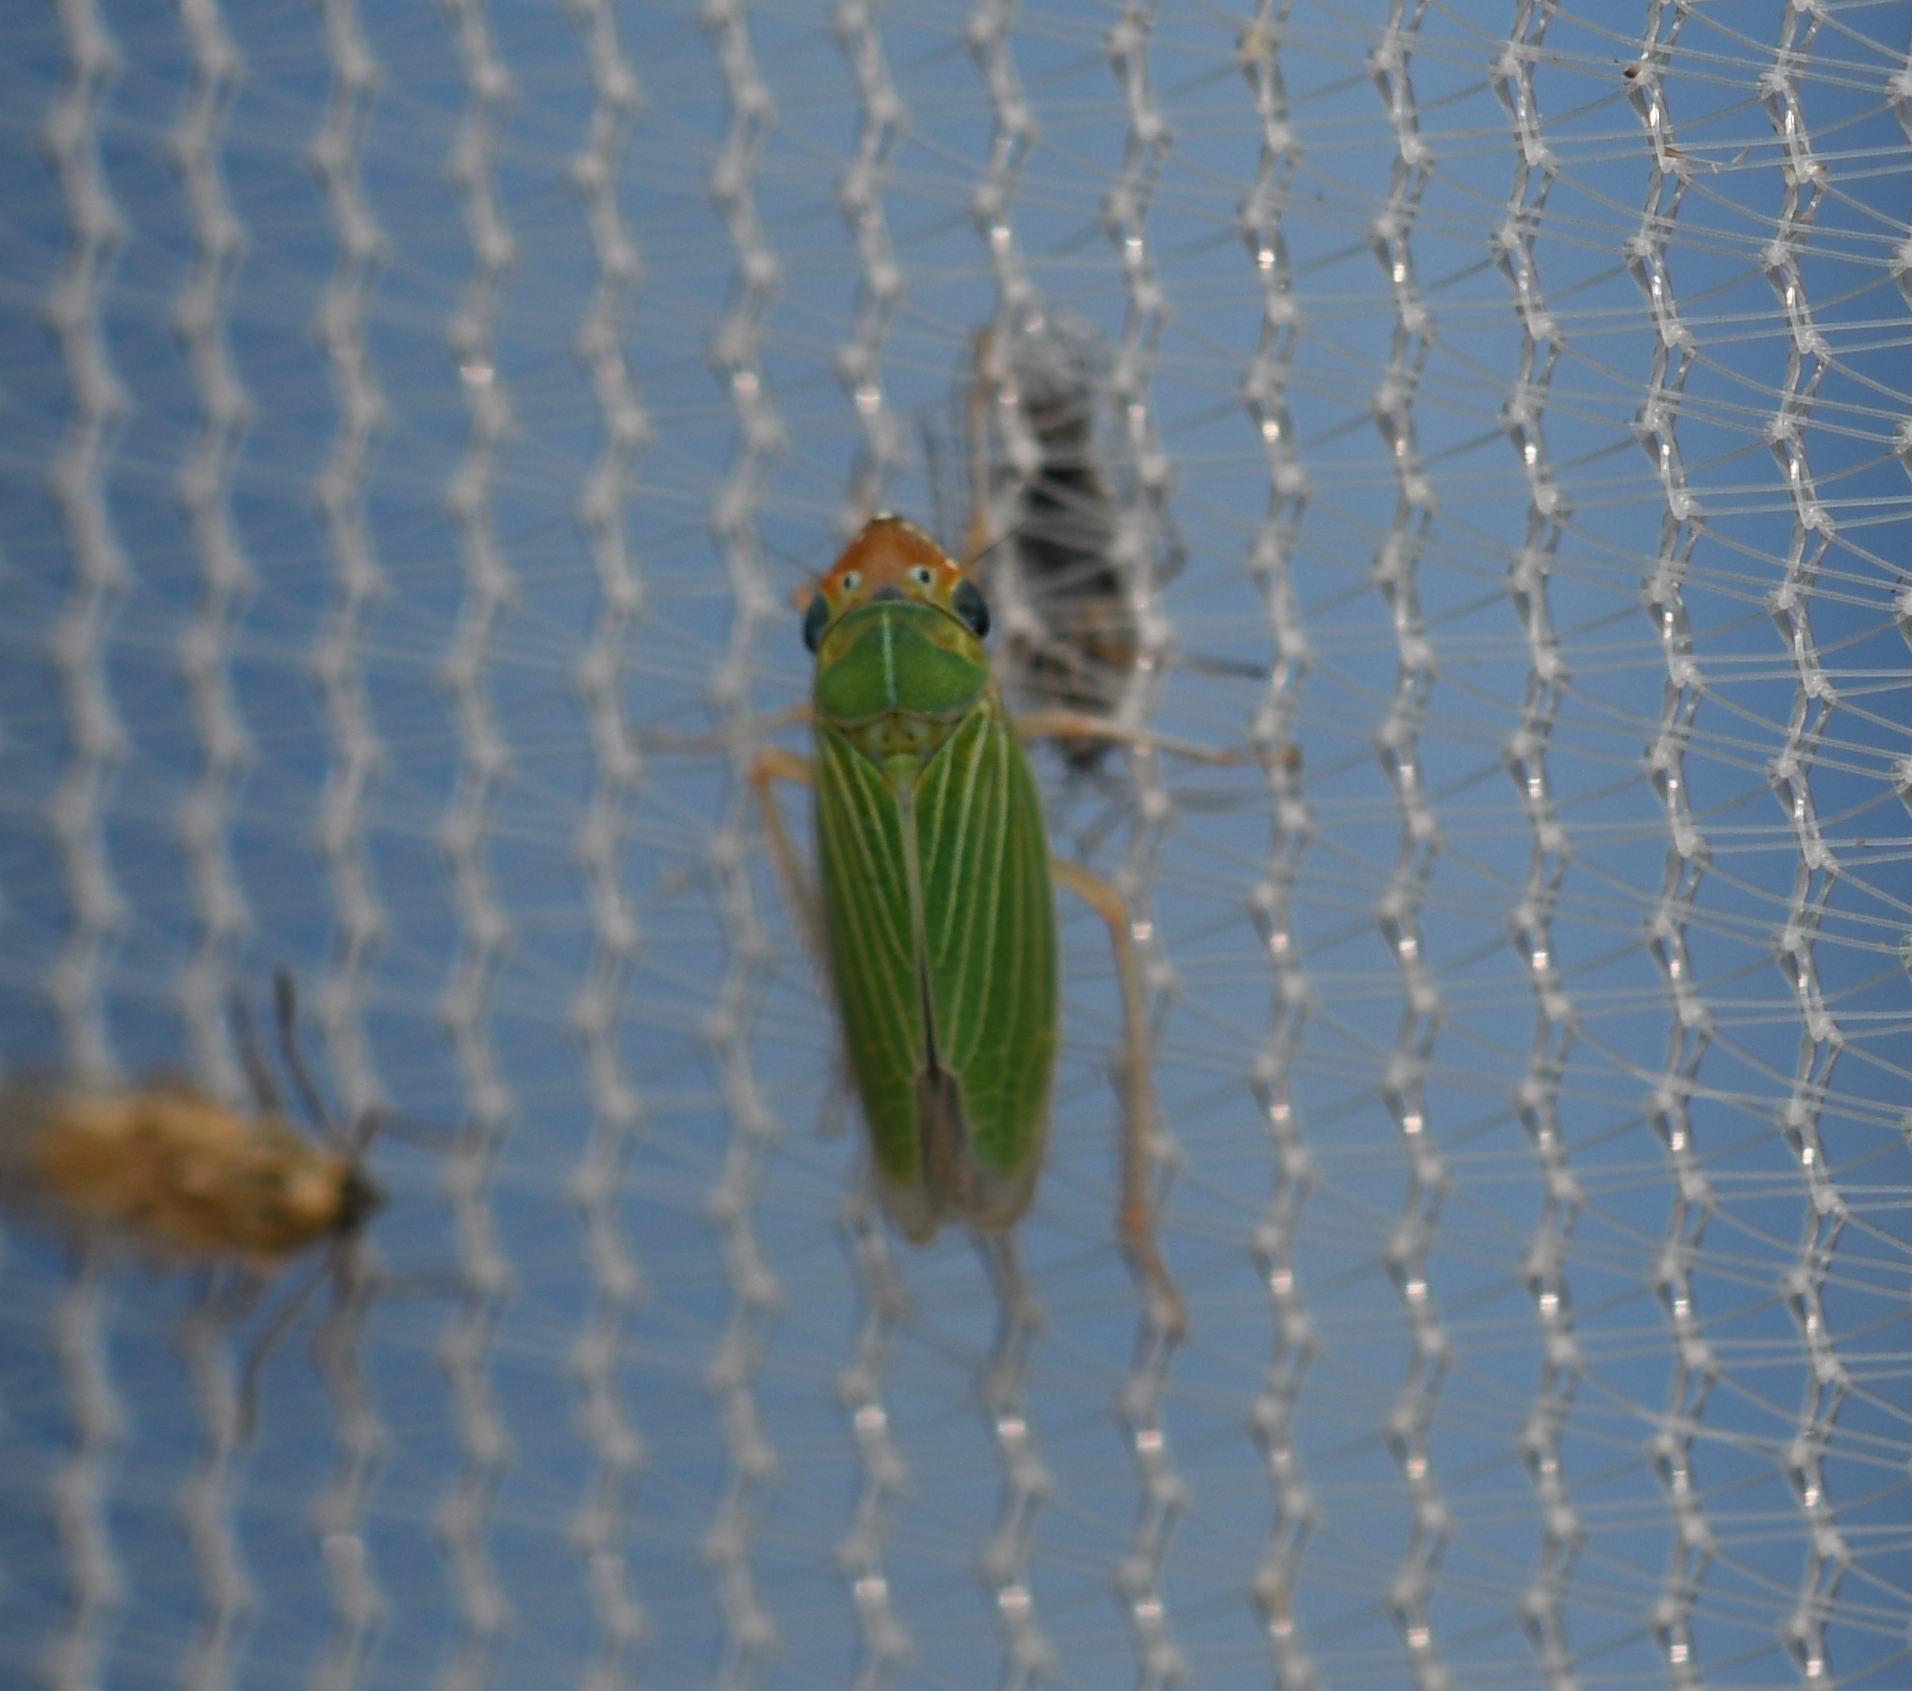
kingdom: Animalia
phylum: Arthropoda
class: Insecta
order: Hemiptera
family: Cicadellidae
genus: Xyphon
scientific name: Xyphon nudum
